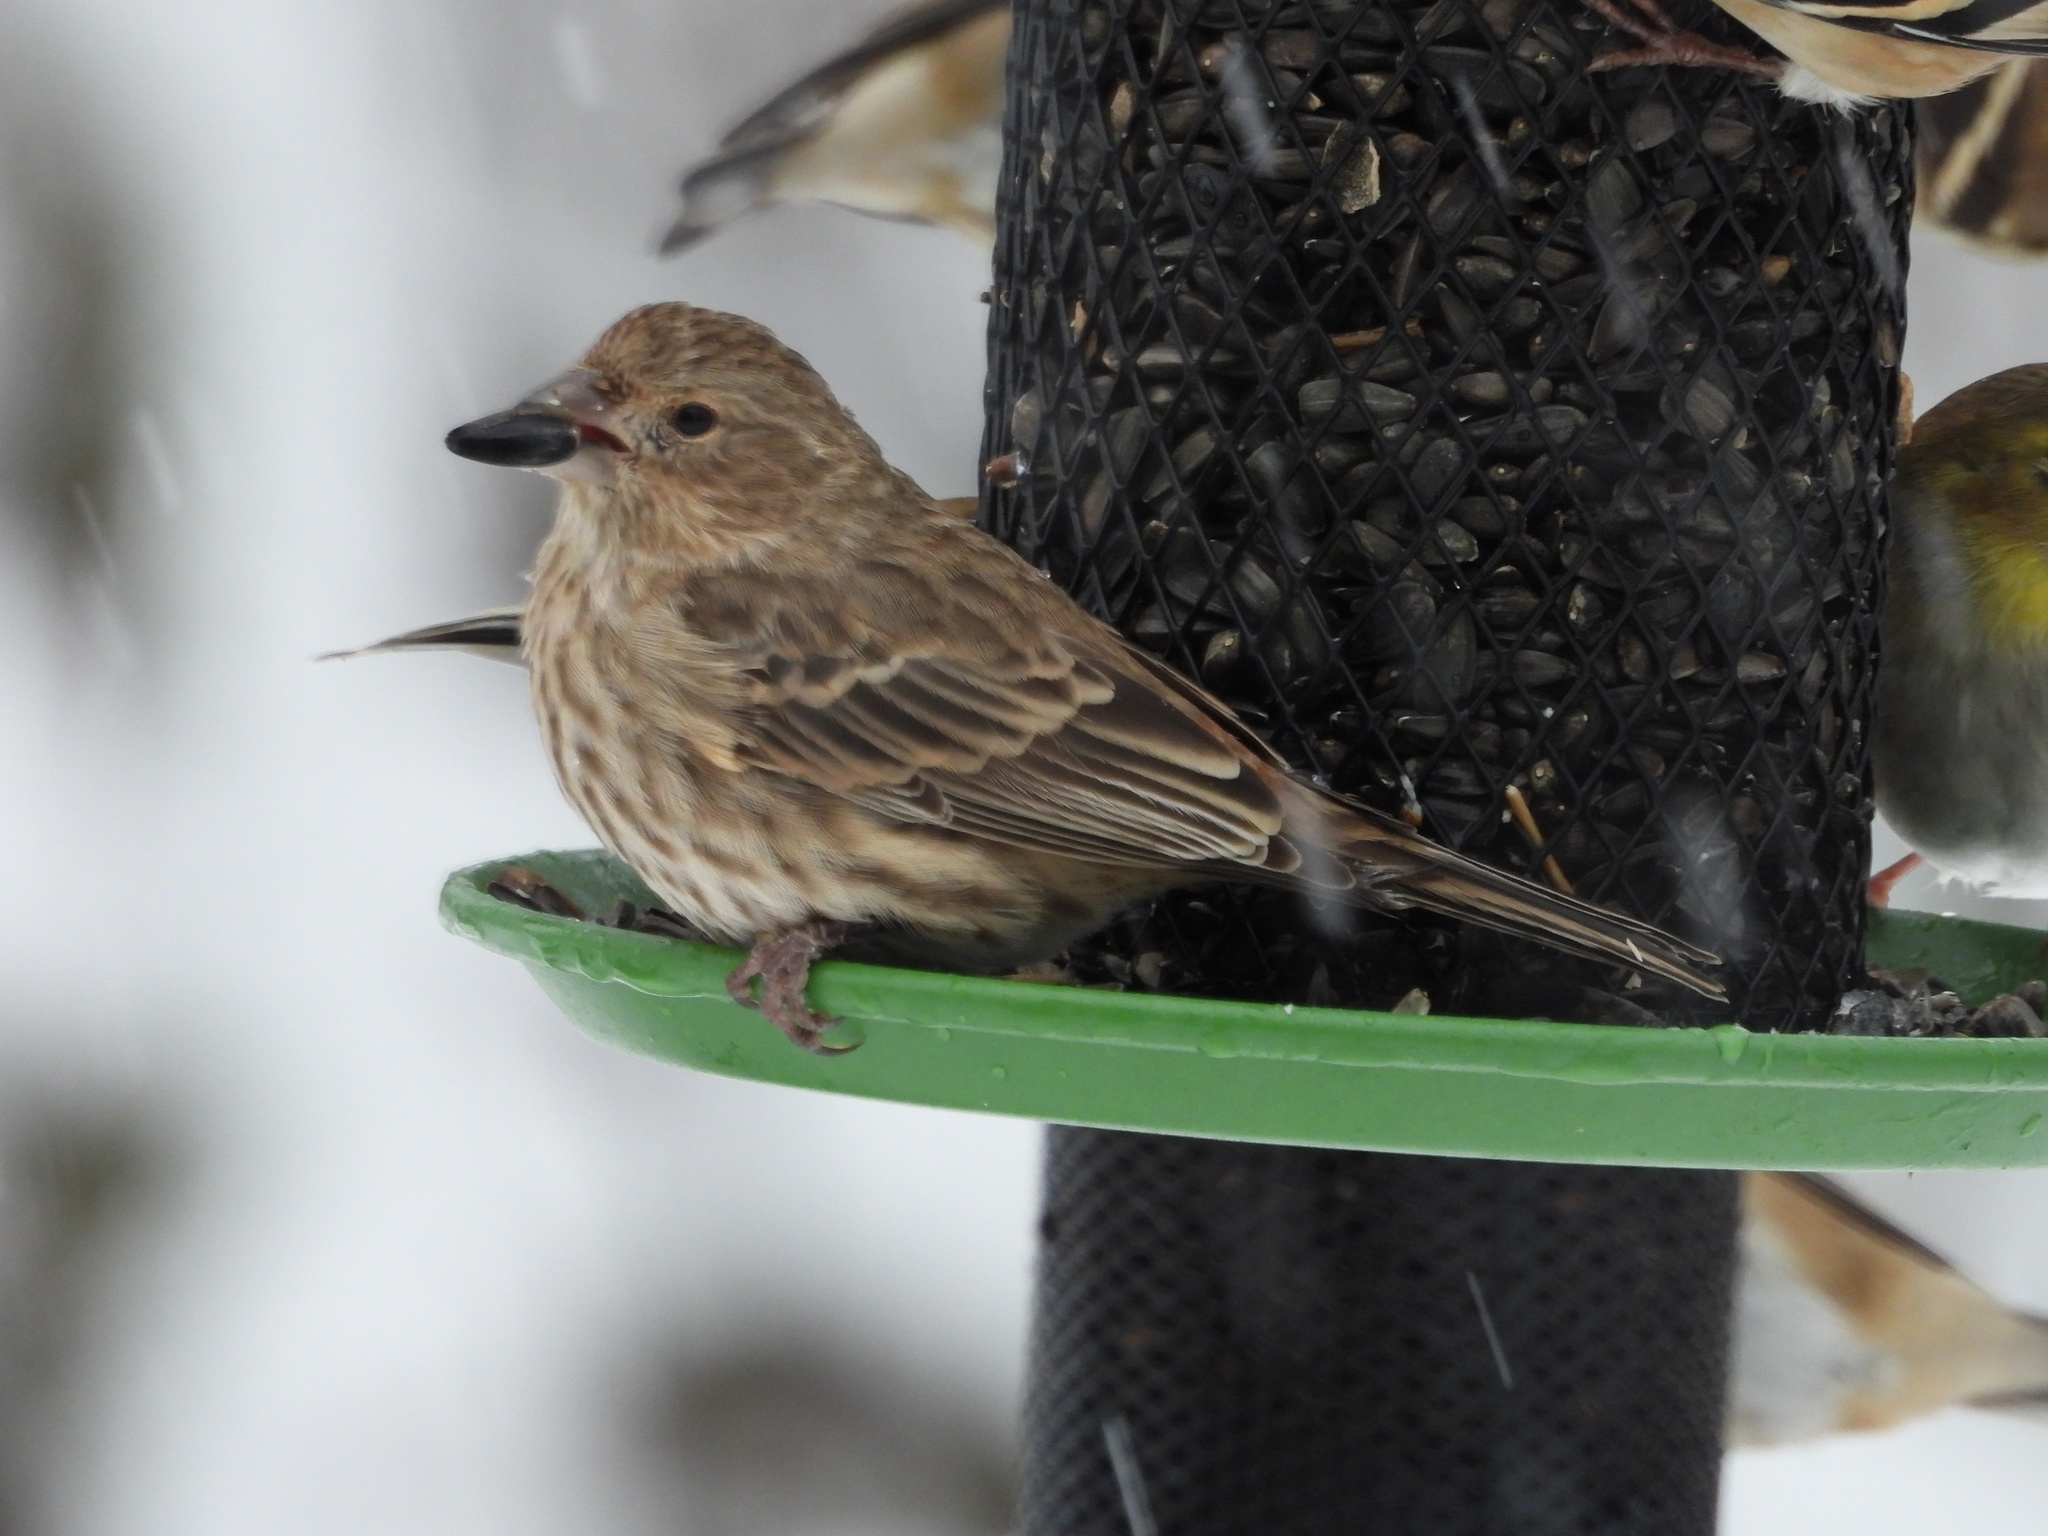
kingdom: Animalia
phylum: Chordata
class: Aves
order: Passeriformes
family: Fringillidae
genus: Haemorhous
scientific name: Haemorhous mexicanus
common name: House finch
